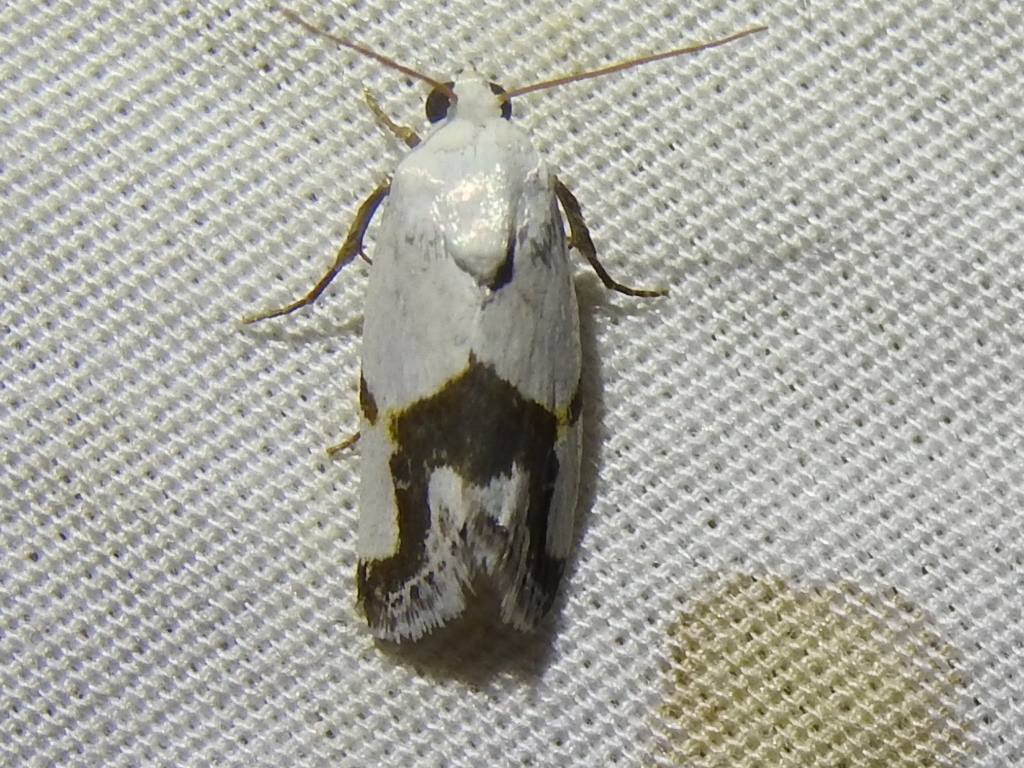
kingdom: Animalia
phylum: Arthropoda
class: Insecta
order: Lepidoptera
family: Noctuidae
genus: Acontia
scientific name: Acontia dorneri
